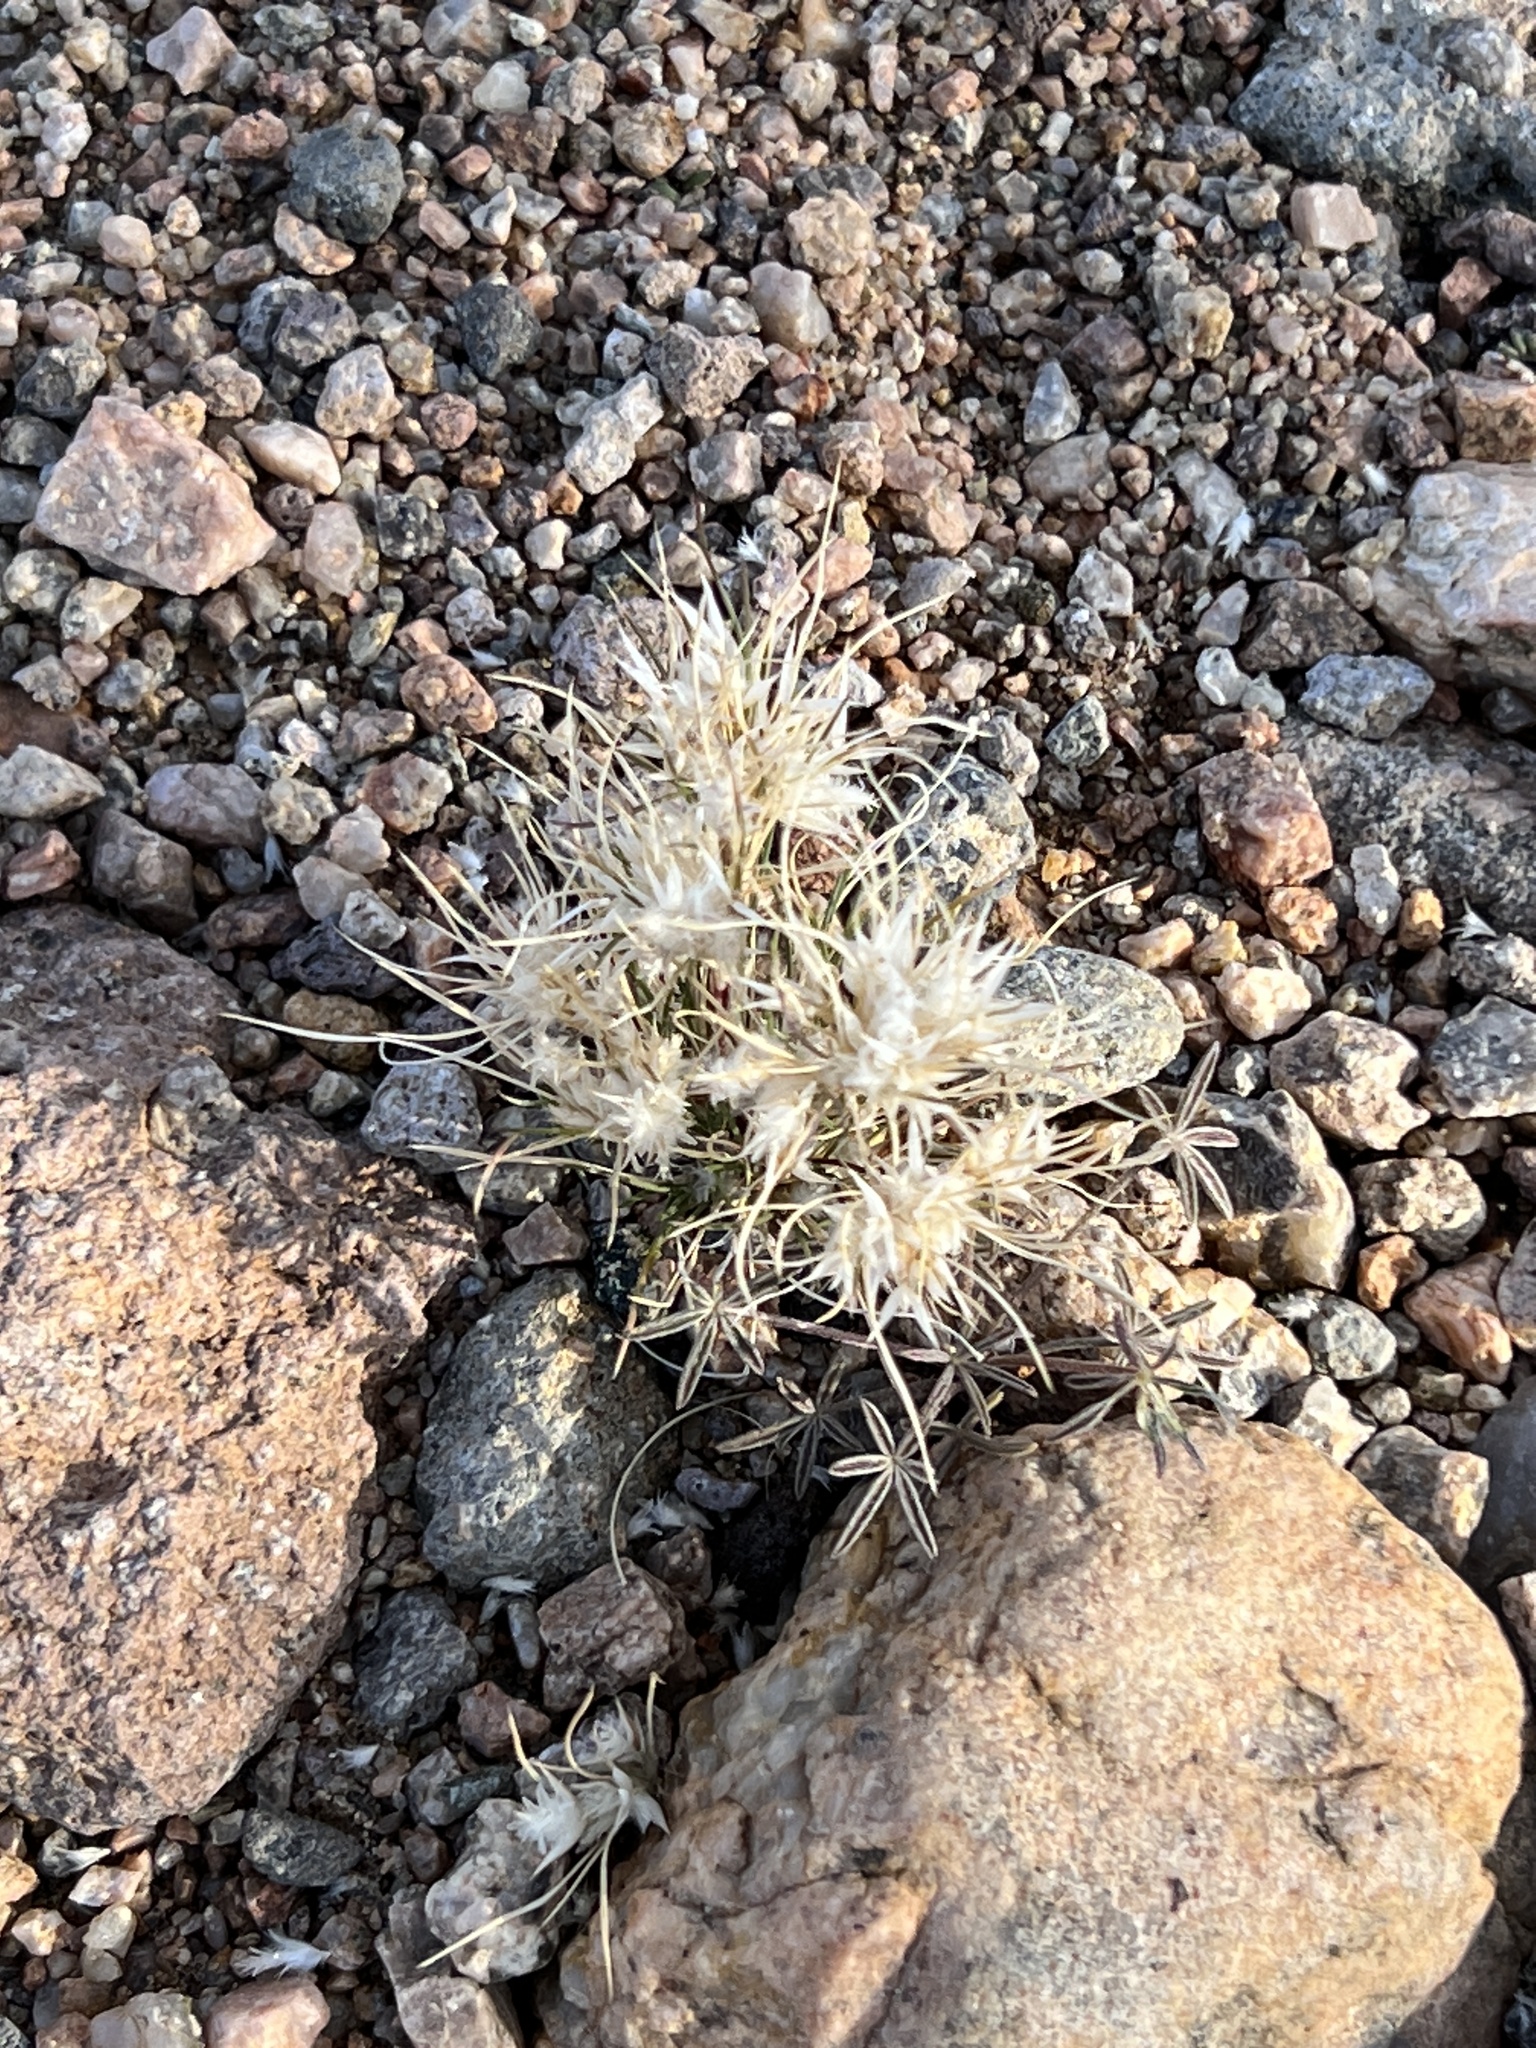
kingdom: Plantae
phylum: Tracheophyta
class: Liliopsida
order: Poales
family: Poaceae
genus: Dasyochloa
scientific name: Dasyochloa pulchella
